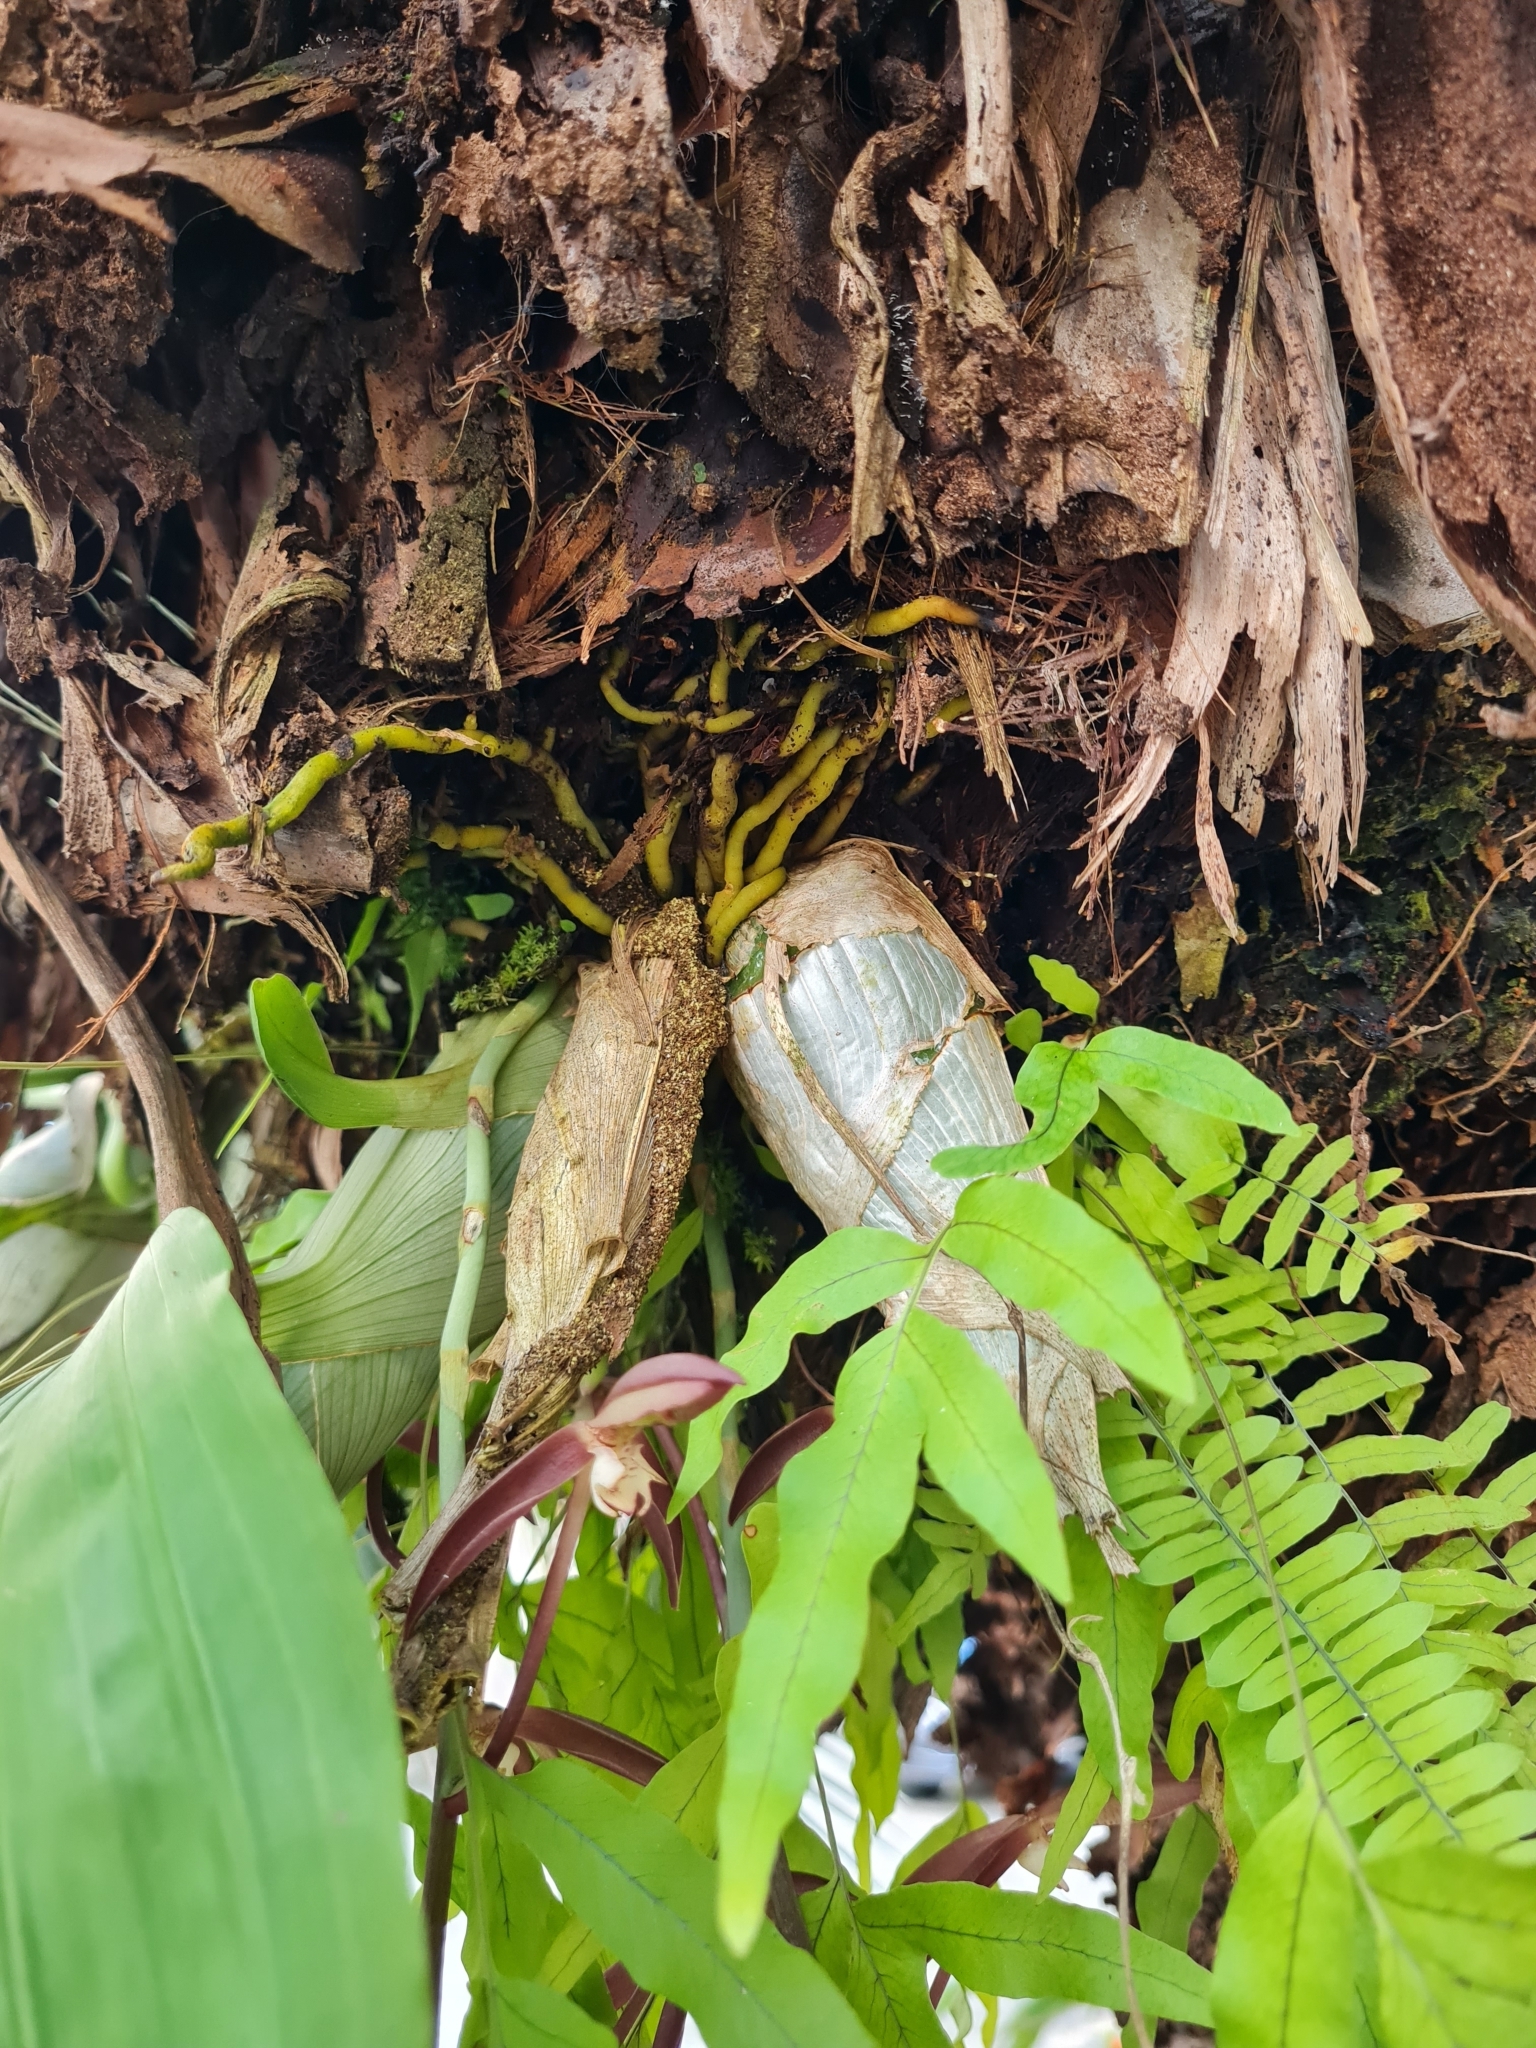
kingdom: Plantae
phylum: Tracheophyta
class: Liliopsida
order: Asparagales
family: Orchidaceae
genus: Catasetum
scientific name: Catasetum bicolor
